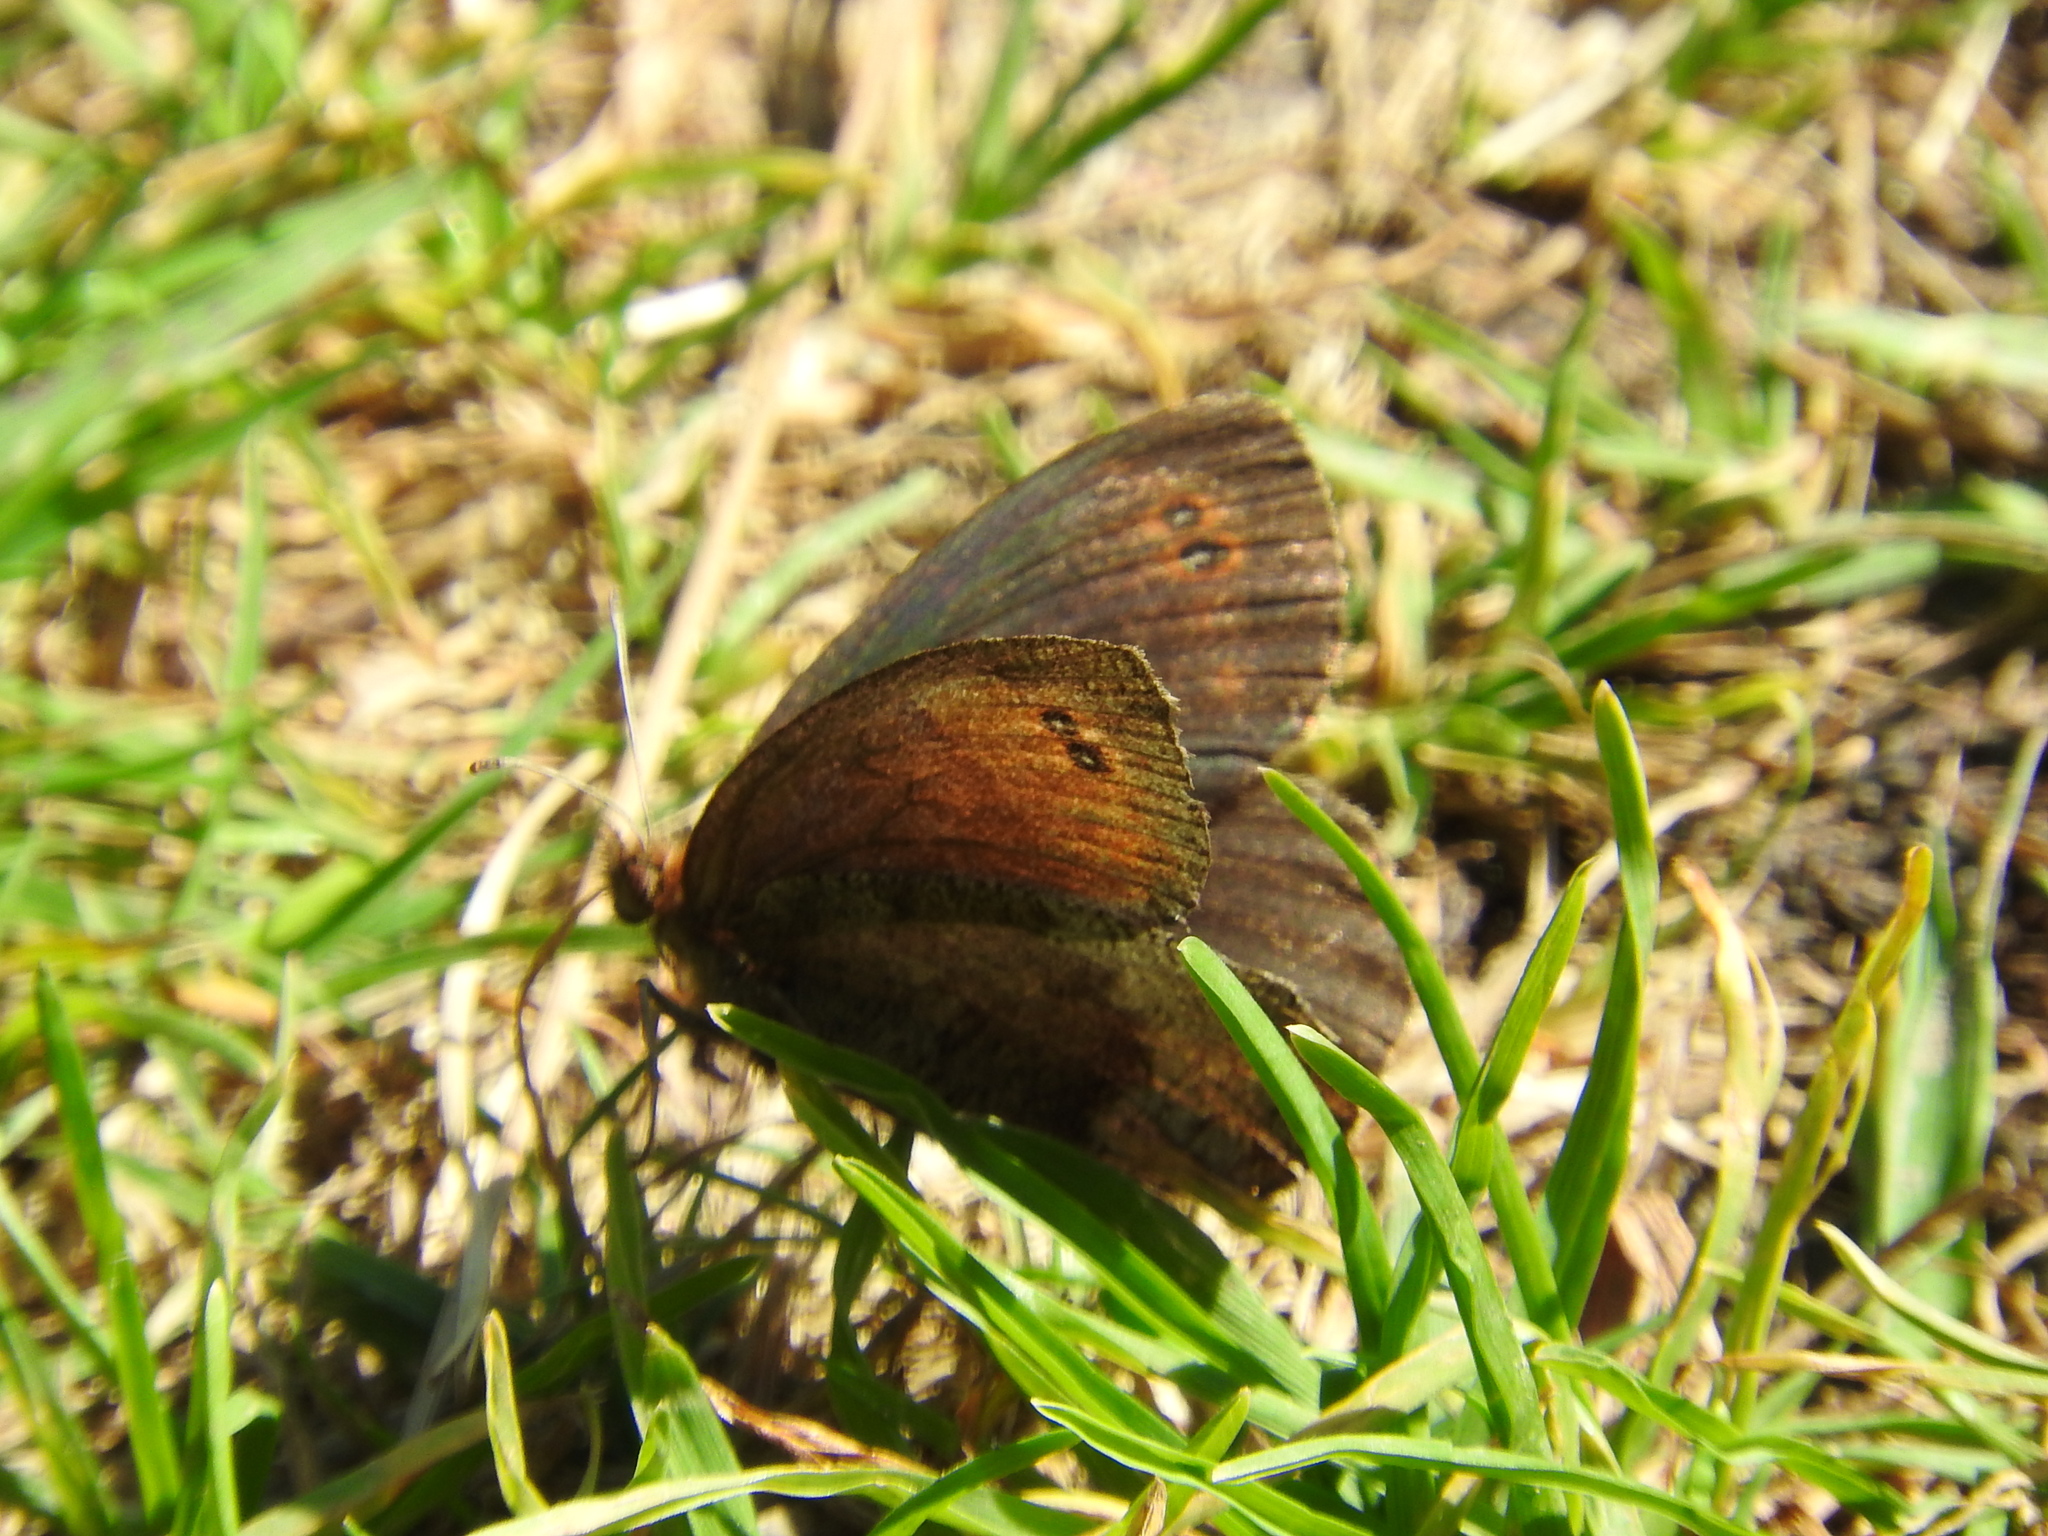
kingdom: Animalia
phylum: Arthropoda
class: Insecta
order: Lepidoptera
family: Nymphalidae
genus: Erebia
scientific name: Erebia pronoe
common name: Water ringlet
